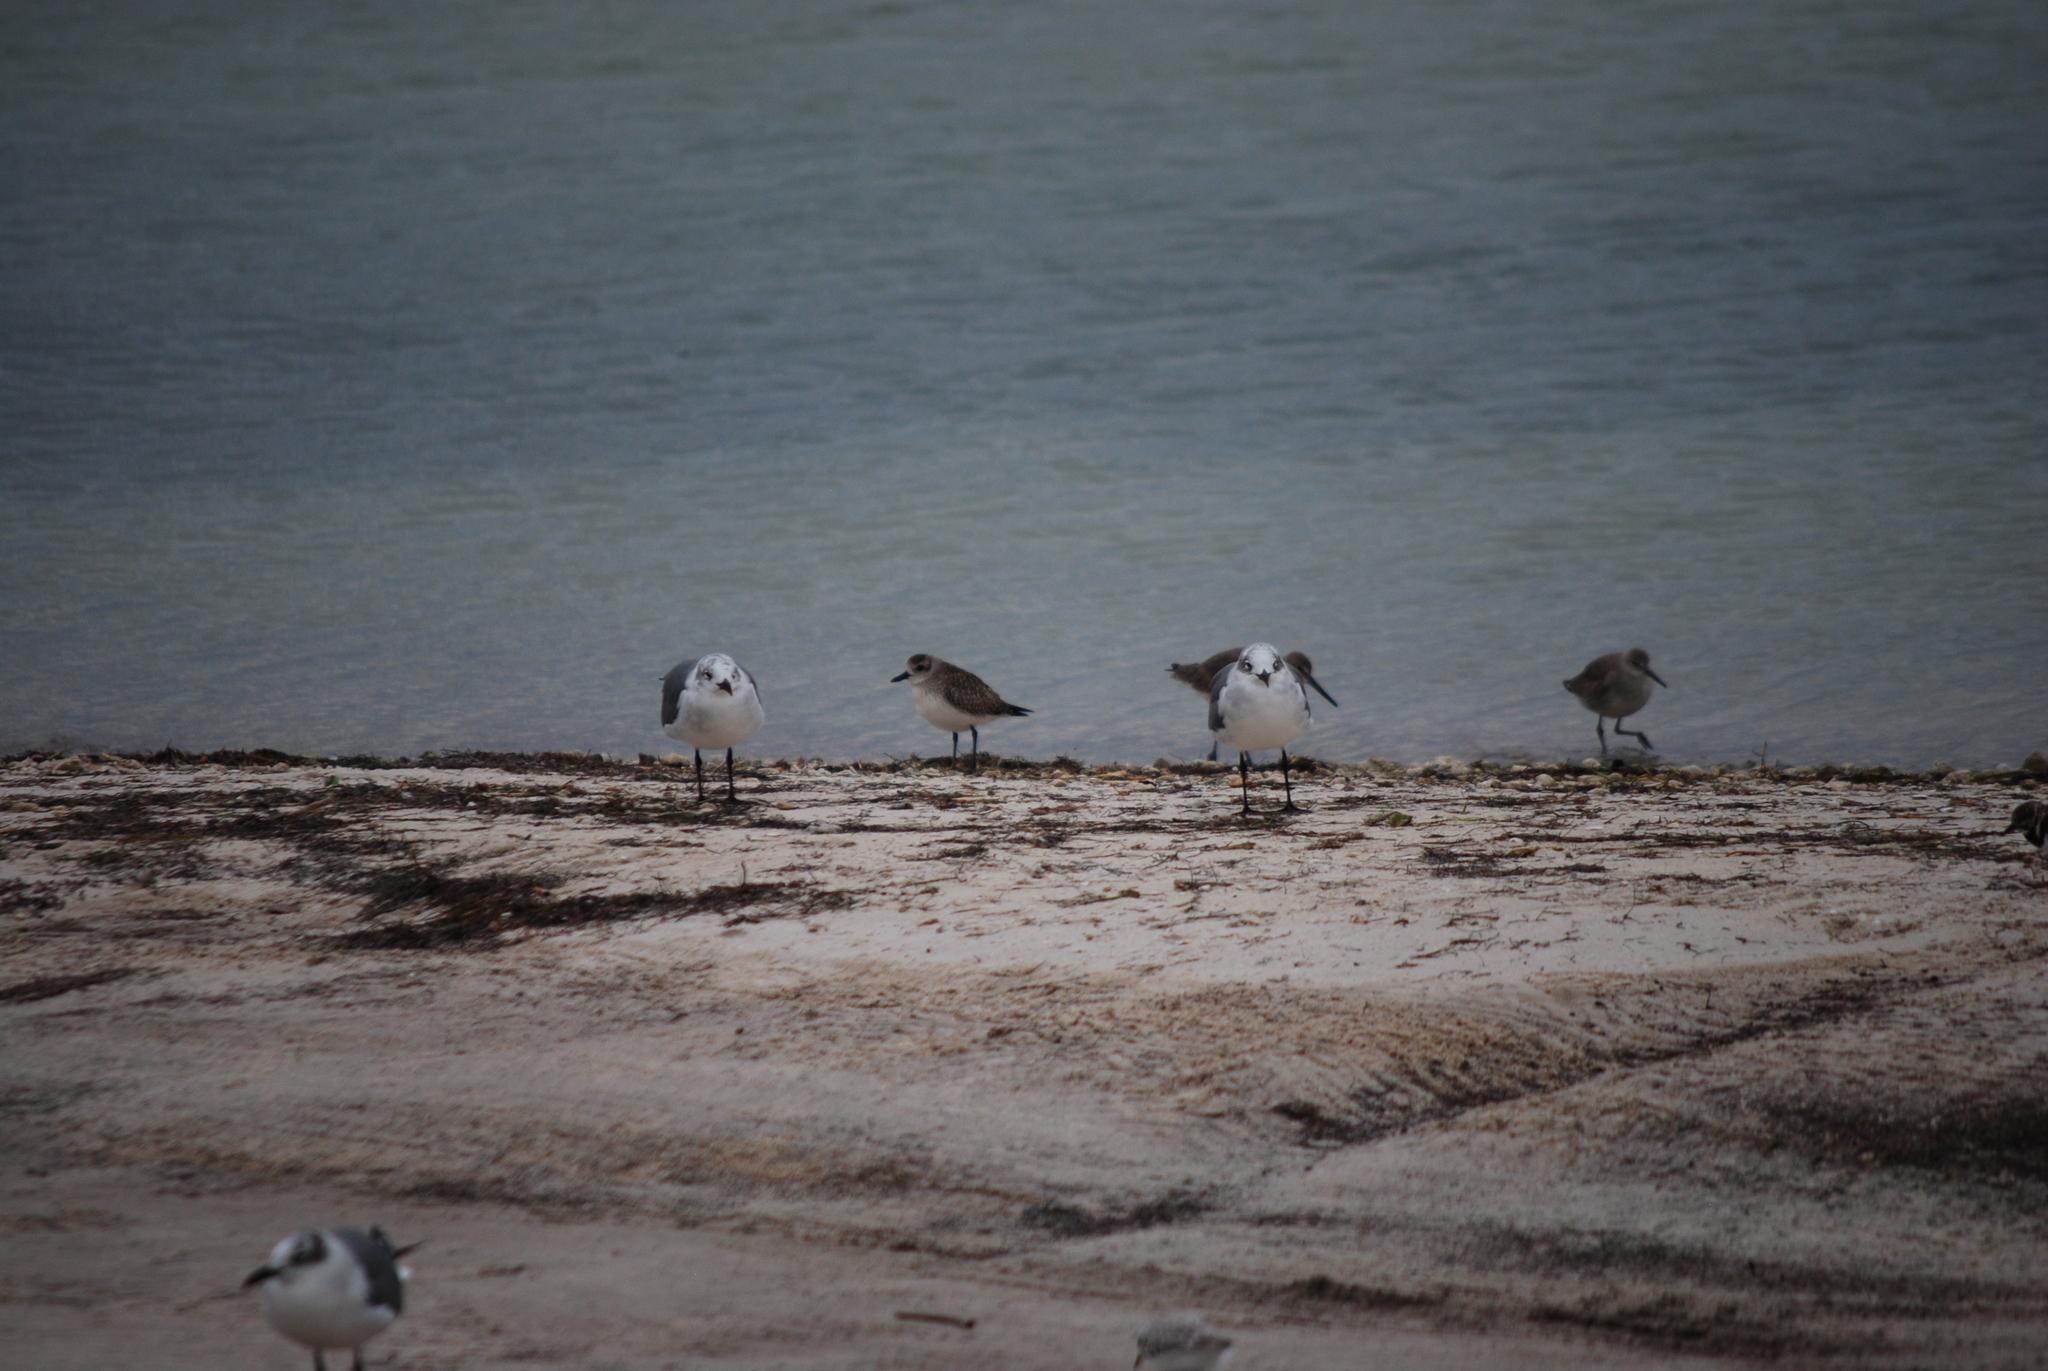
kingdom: Animalia
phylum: Chordata
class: Aves
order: Charadriiformes
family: Laridae
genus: Leucophaeus
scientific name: Leucophaeus atricilla
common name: Laughing gull
